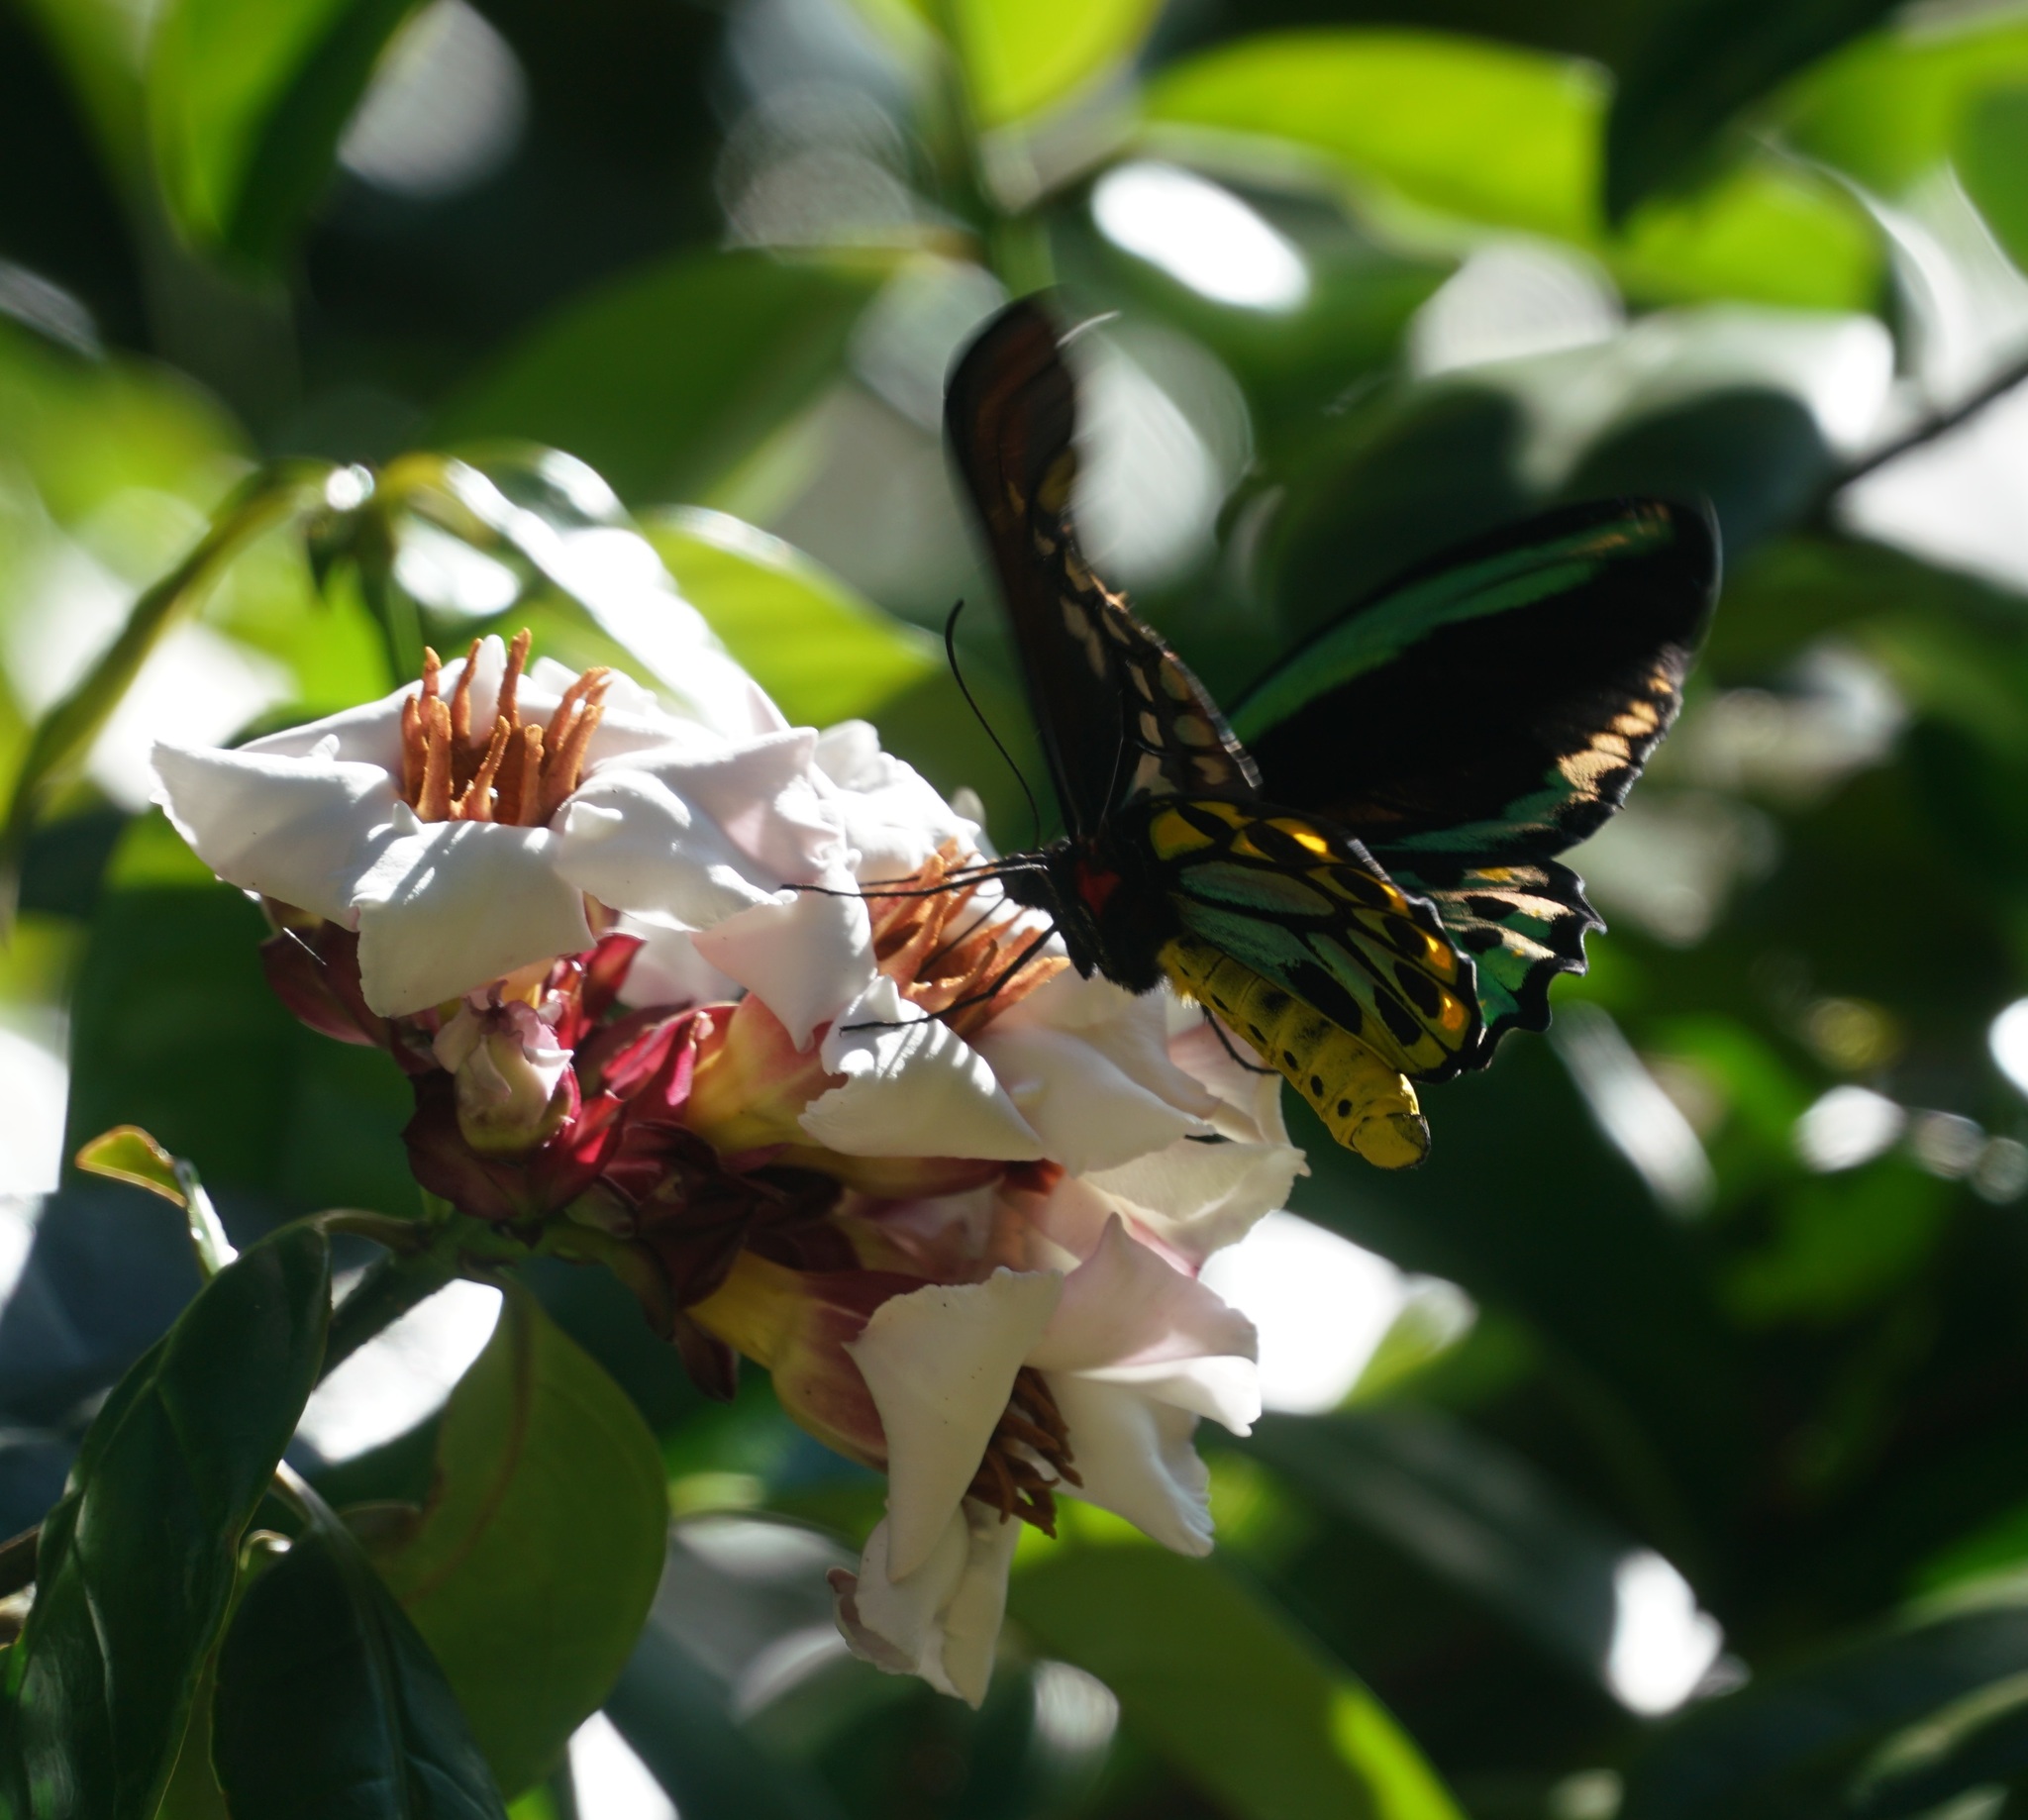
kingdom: Animalia
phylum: Arthropoda
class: Insecta
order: Lepidoptera
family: Papilionidae
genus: Ornithoptera
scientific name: Ornithoptera euphorion
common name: Cairns birdwing
